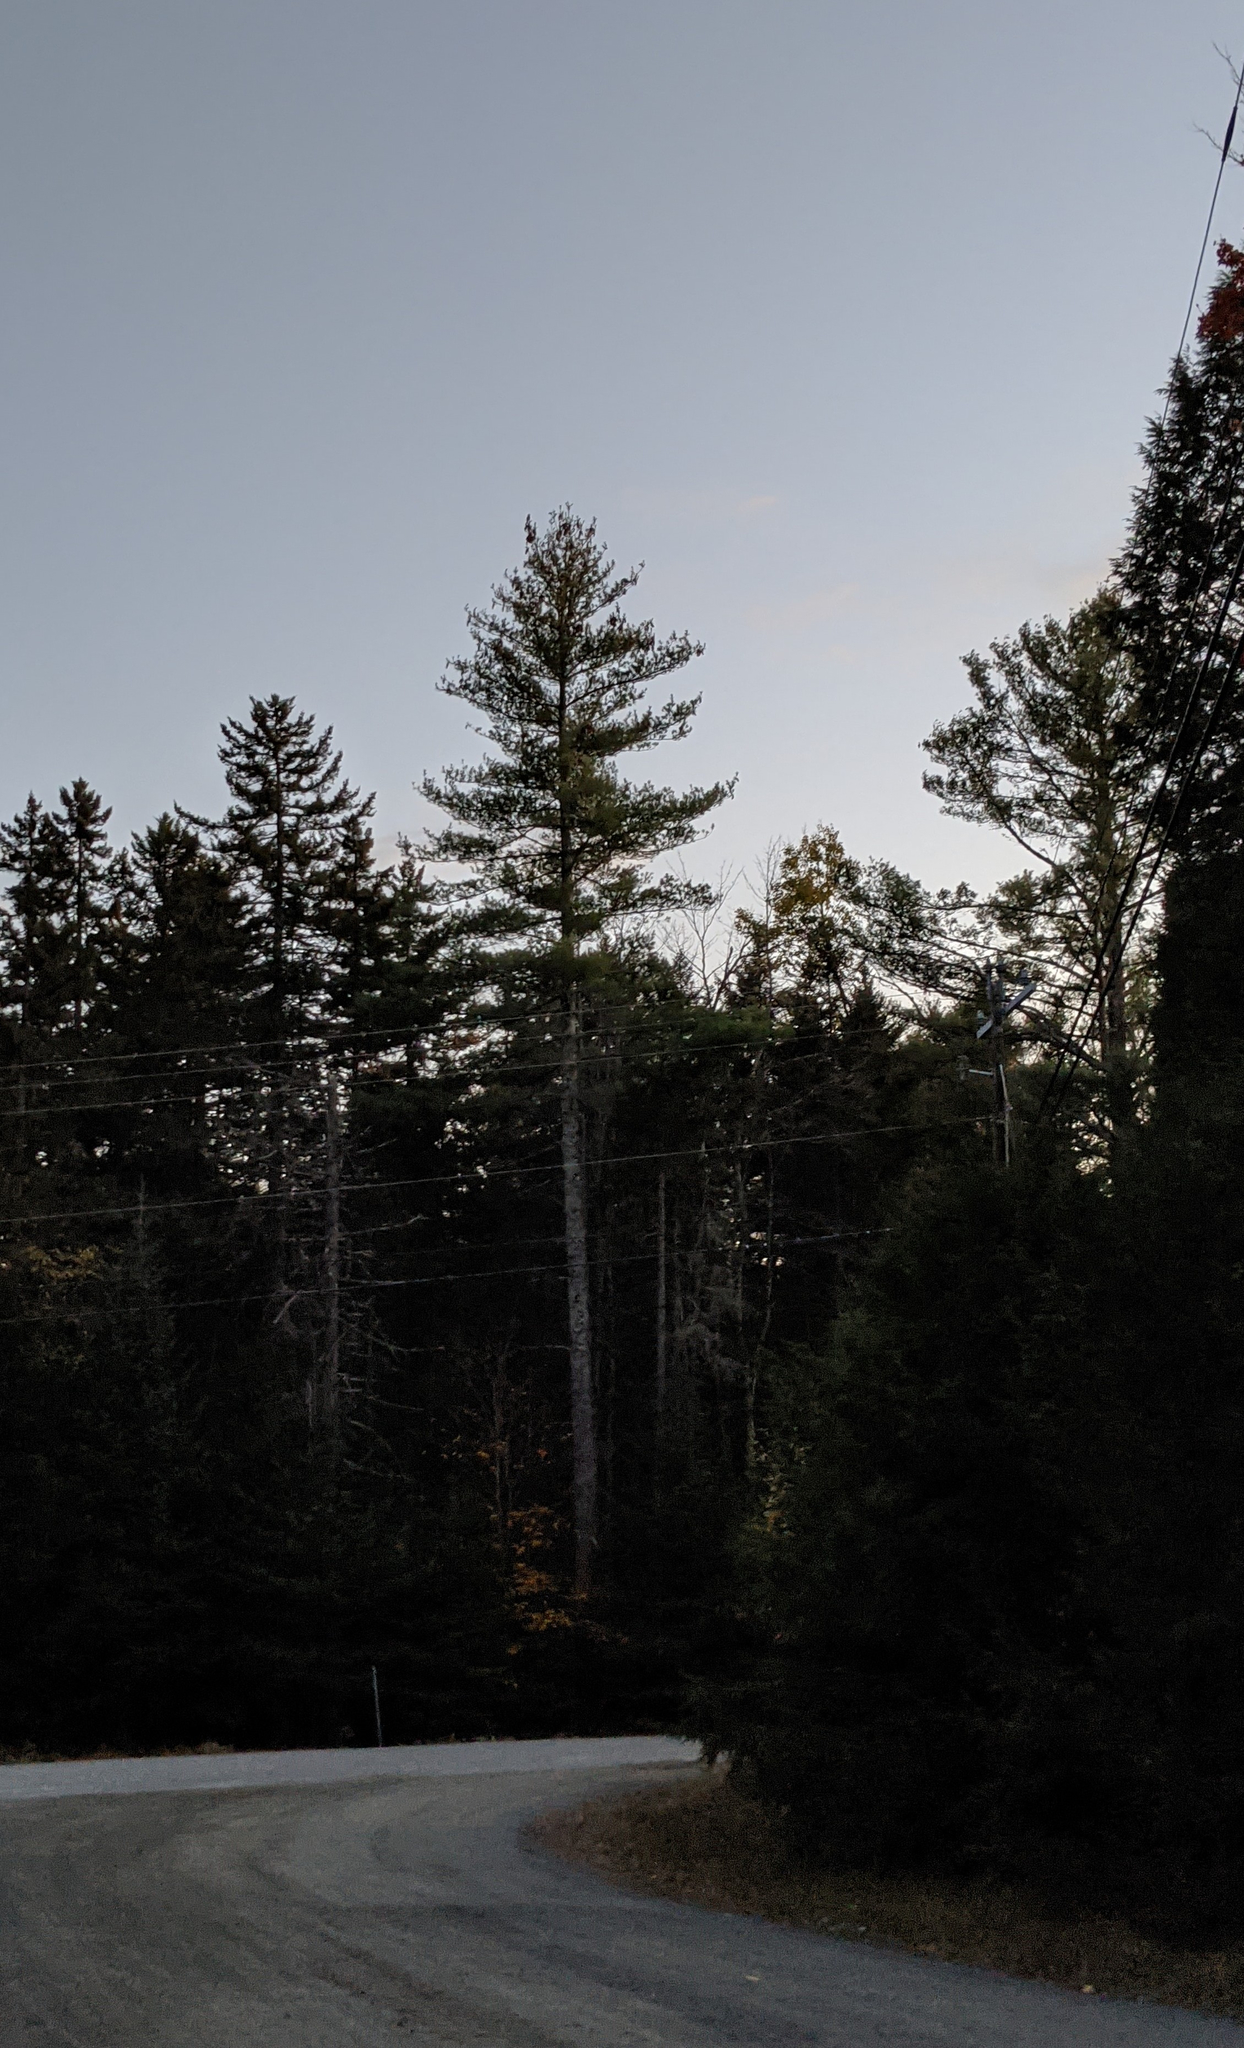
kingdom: Plantae
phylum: Tracheophyta
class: Pinopsida
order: Pinales
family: Pinaceae
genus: Pinus
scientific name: Pinus strobus
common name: Weymouth pine
